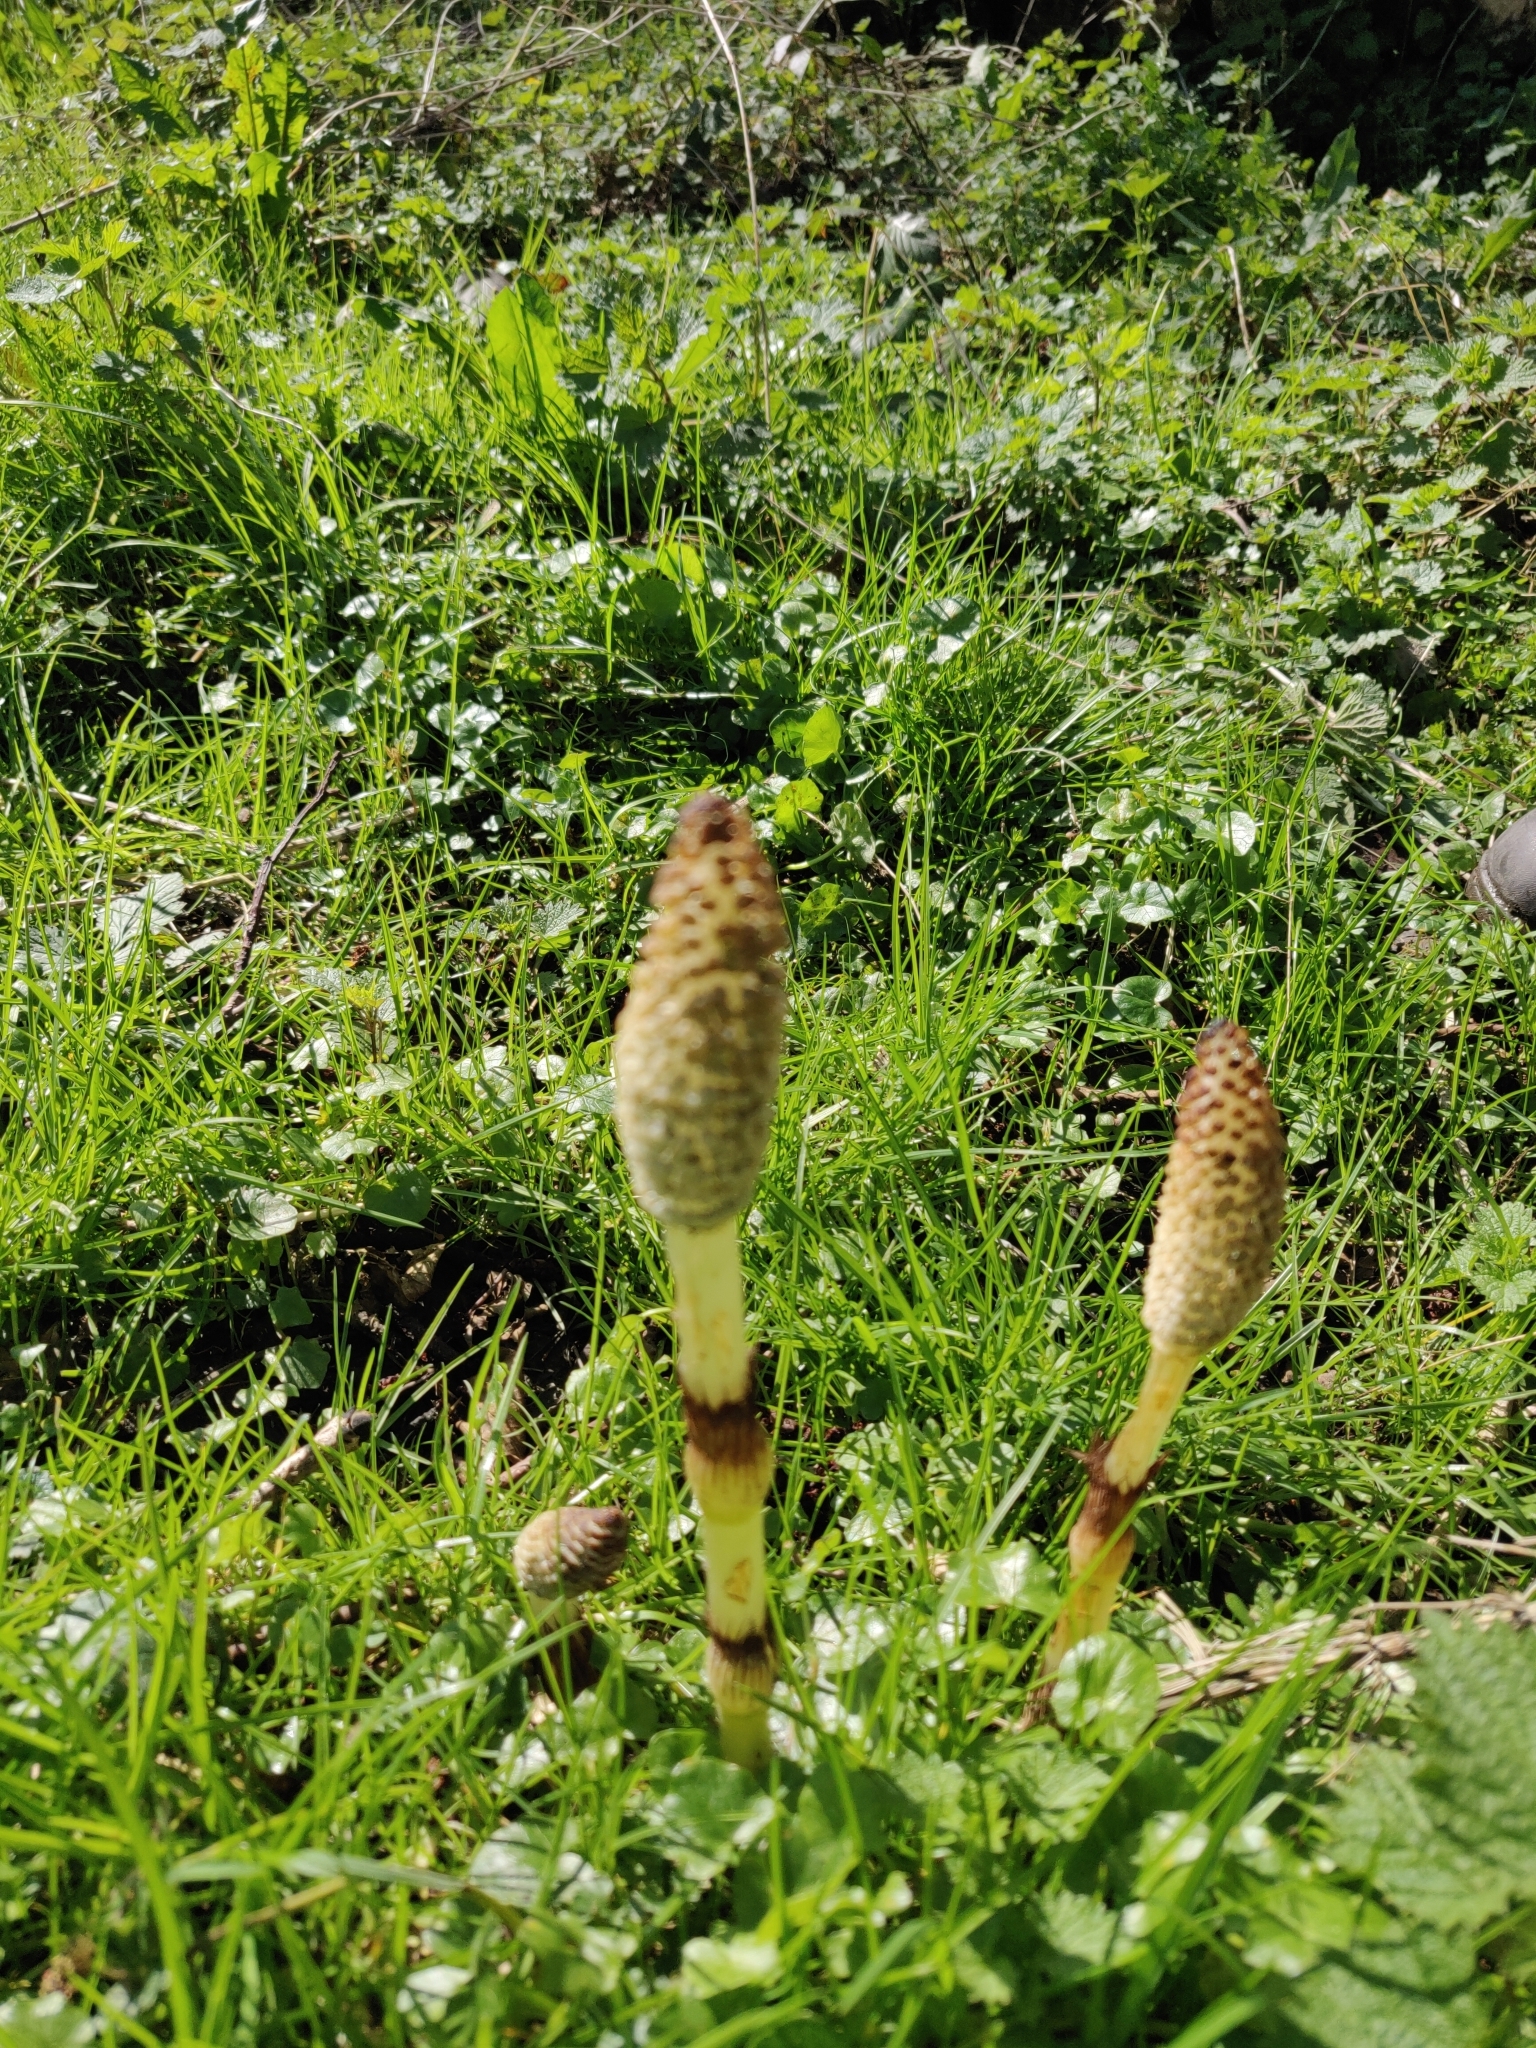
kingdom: Plantae
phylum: Tracheophyta
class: Polypodiopsida
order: Equisetales
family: Equisetaceae
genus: Equisetum
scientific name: Equisetum telmateia
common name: Great horsetail
